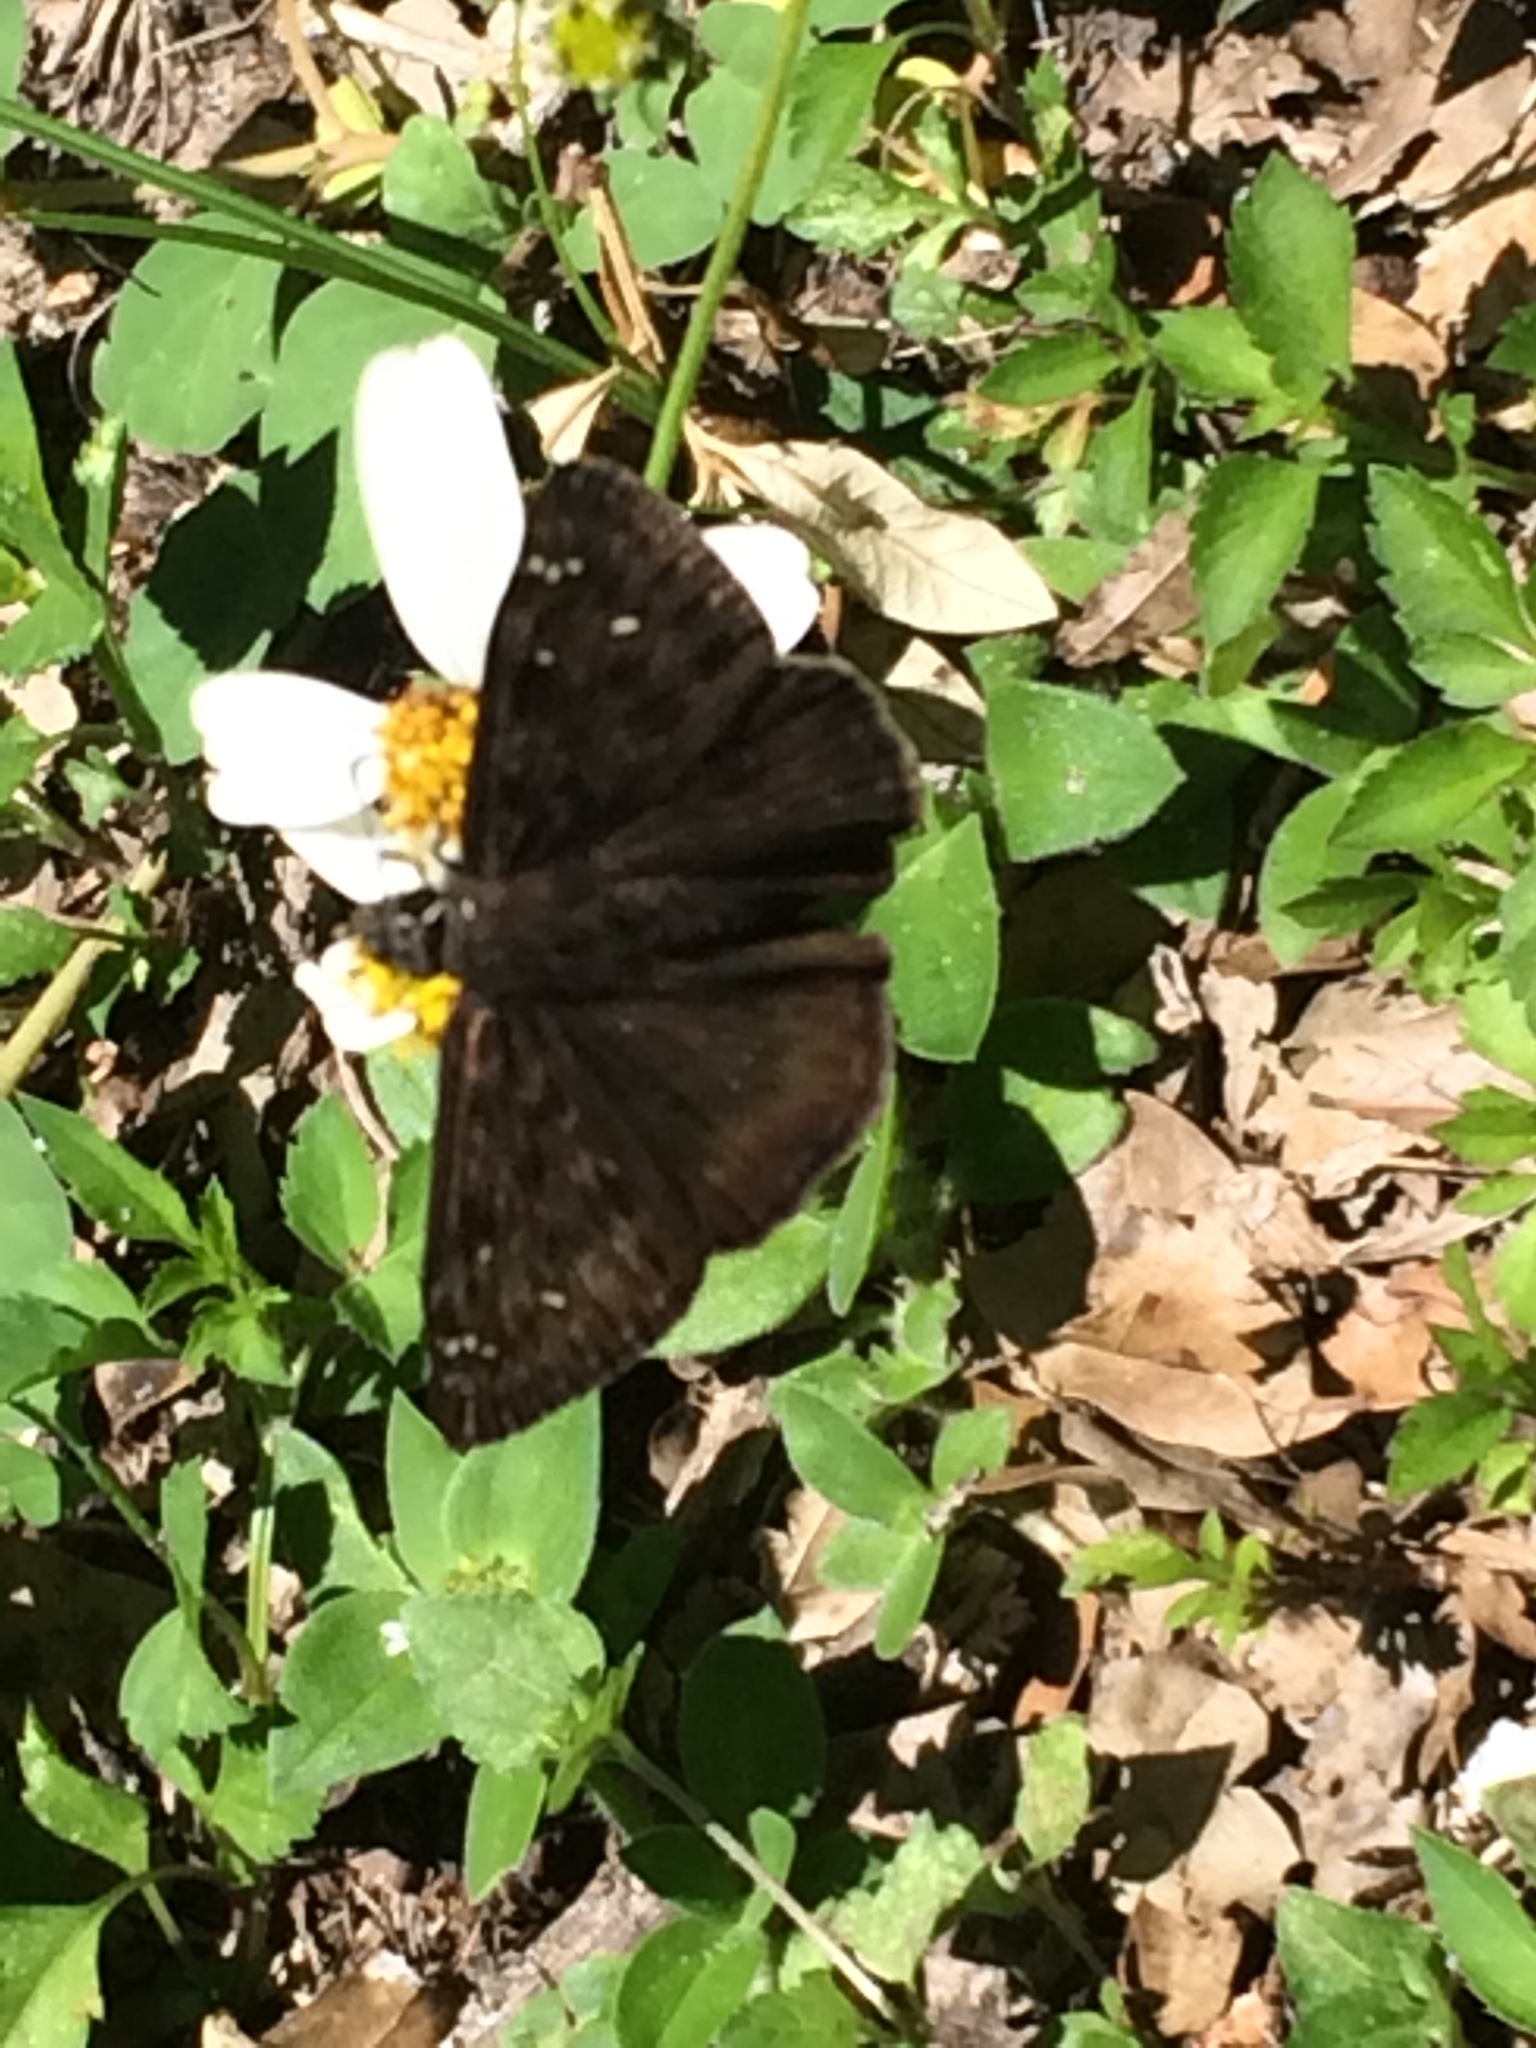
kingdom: Animalia
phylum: Arthropoda
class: Insecta
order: Lepidoptera
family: Hesperiidae
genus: Erynnis
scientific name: Erynnis horatius
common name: Horace's duskywing
